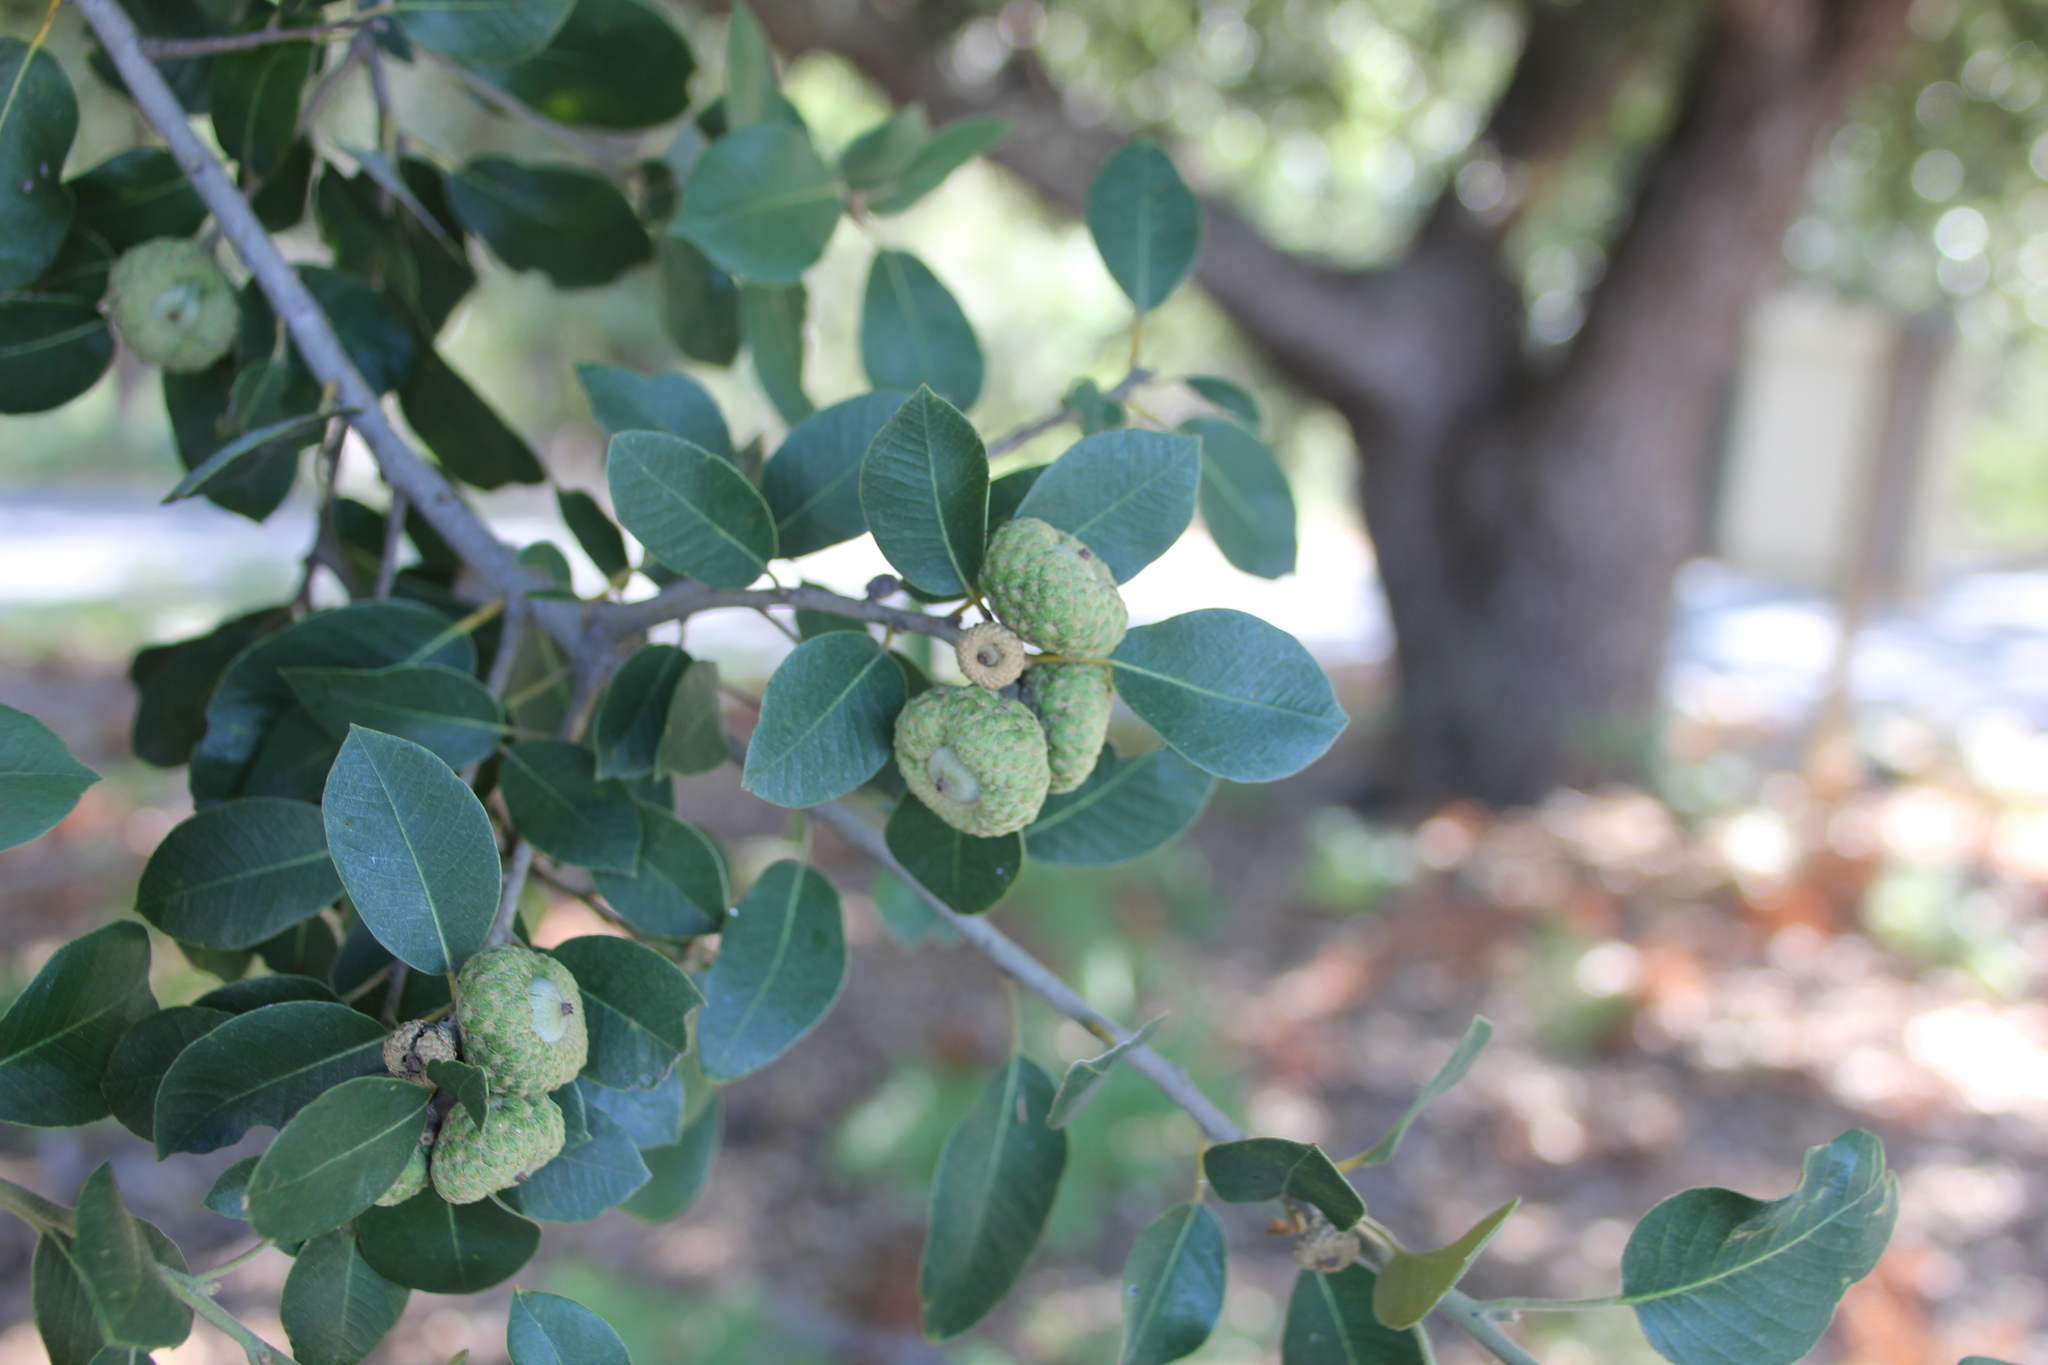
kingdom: Plantae
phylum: Tracheophyta
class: Magnoliopsida
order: Fagales
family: Fagaceae
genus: Quercus
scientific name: Quercus chrysolepis
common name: Canyon live oak
